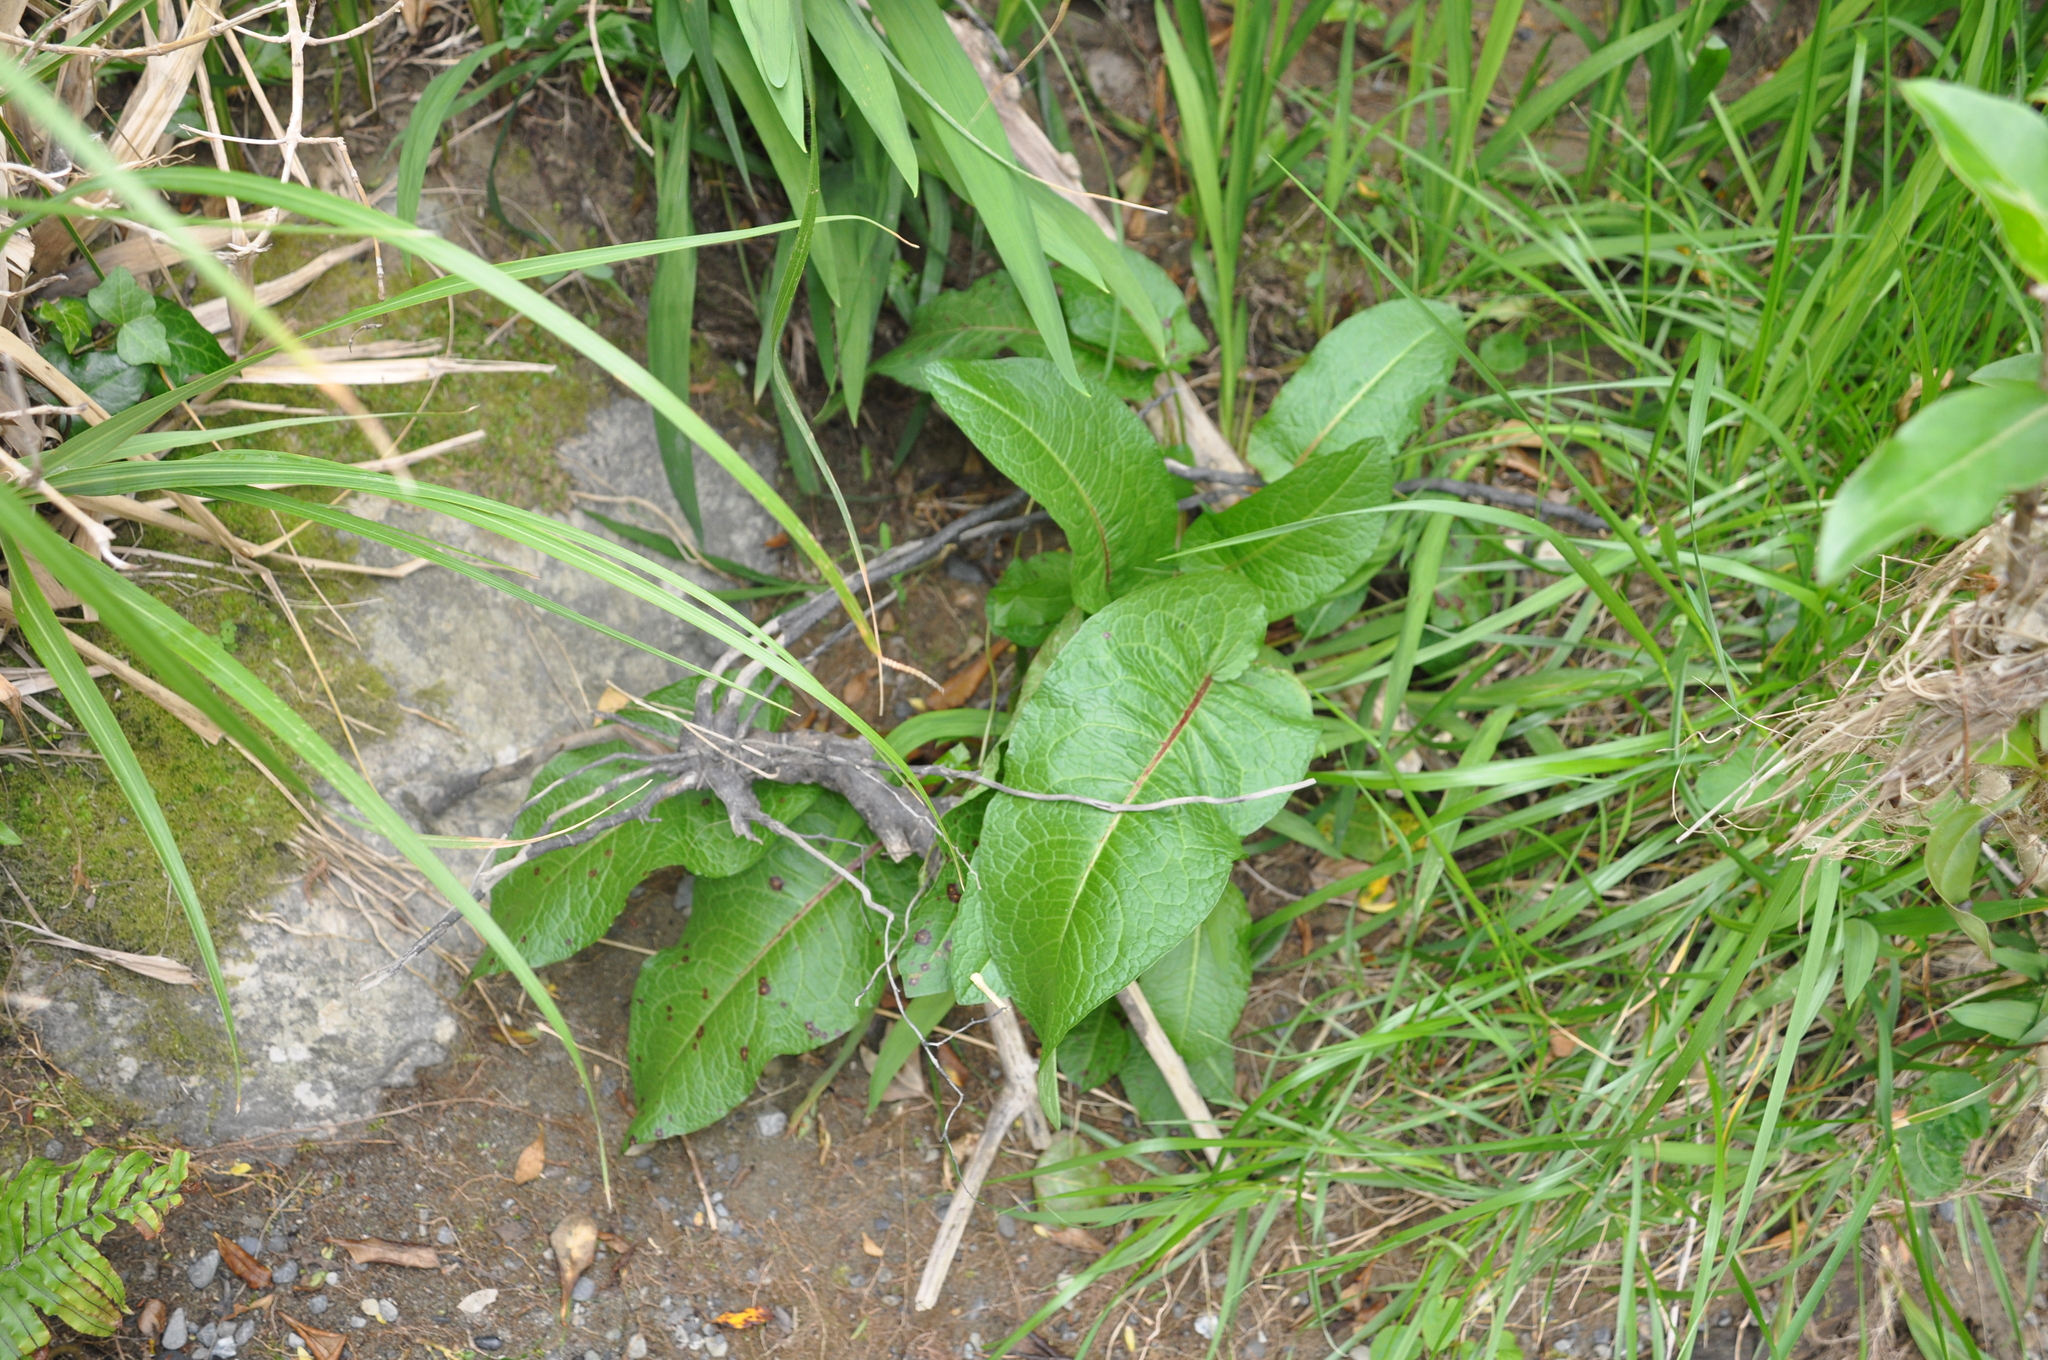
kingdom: Plantae
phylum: Tracheophyta
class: Magnoliopsida
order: Caryophyllales
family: Polygonaceae
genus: Rumex
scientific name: Rumex obtusifolius
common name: Bitter dock
